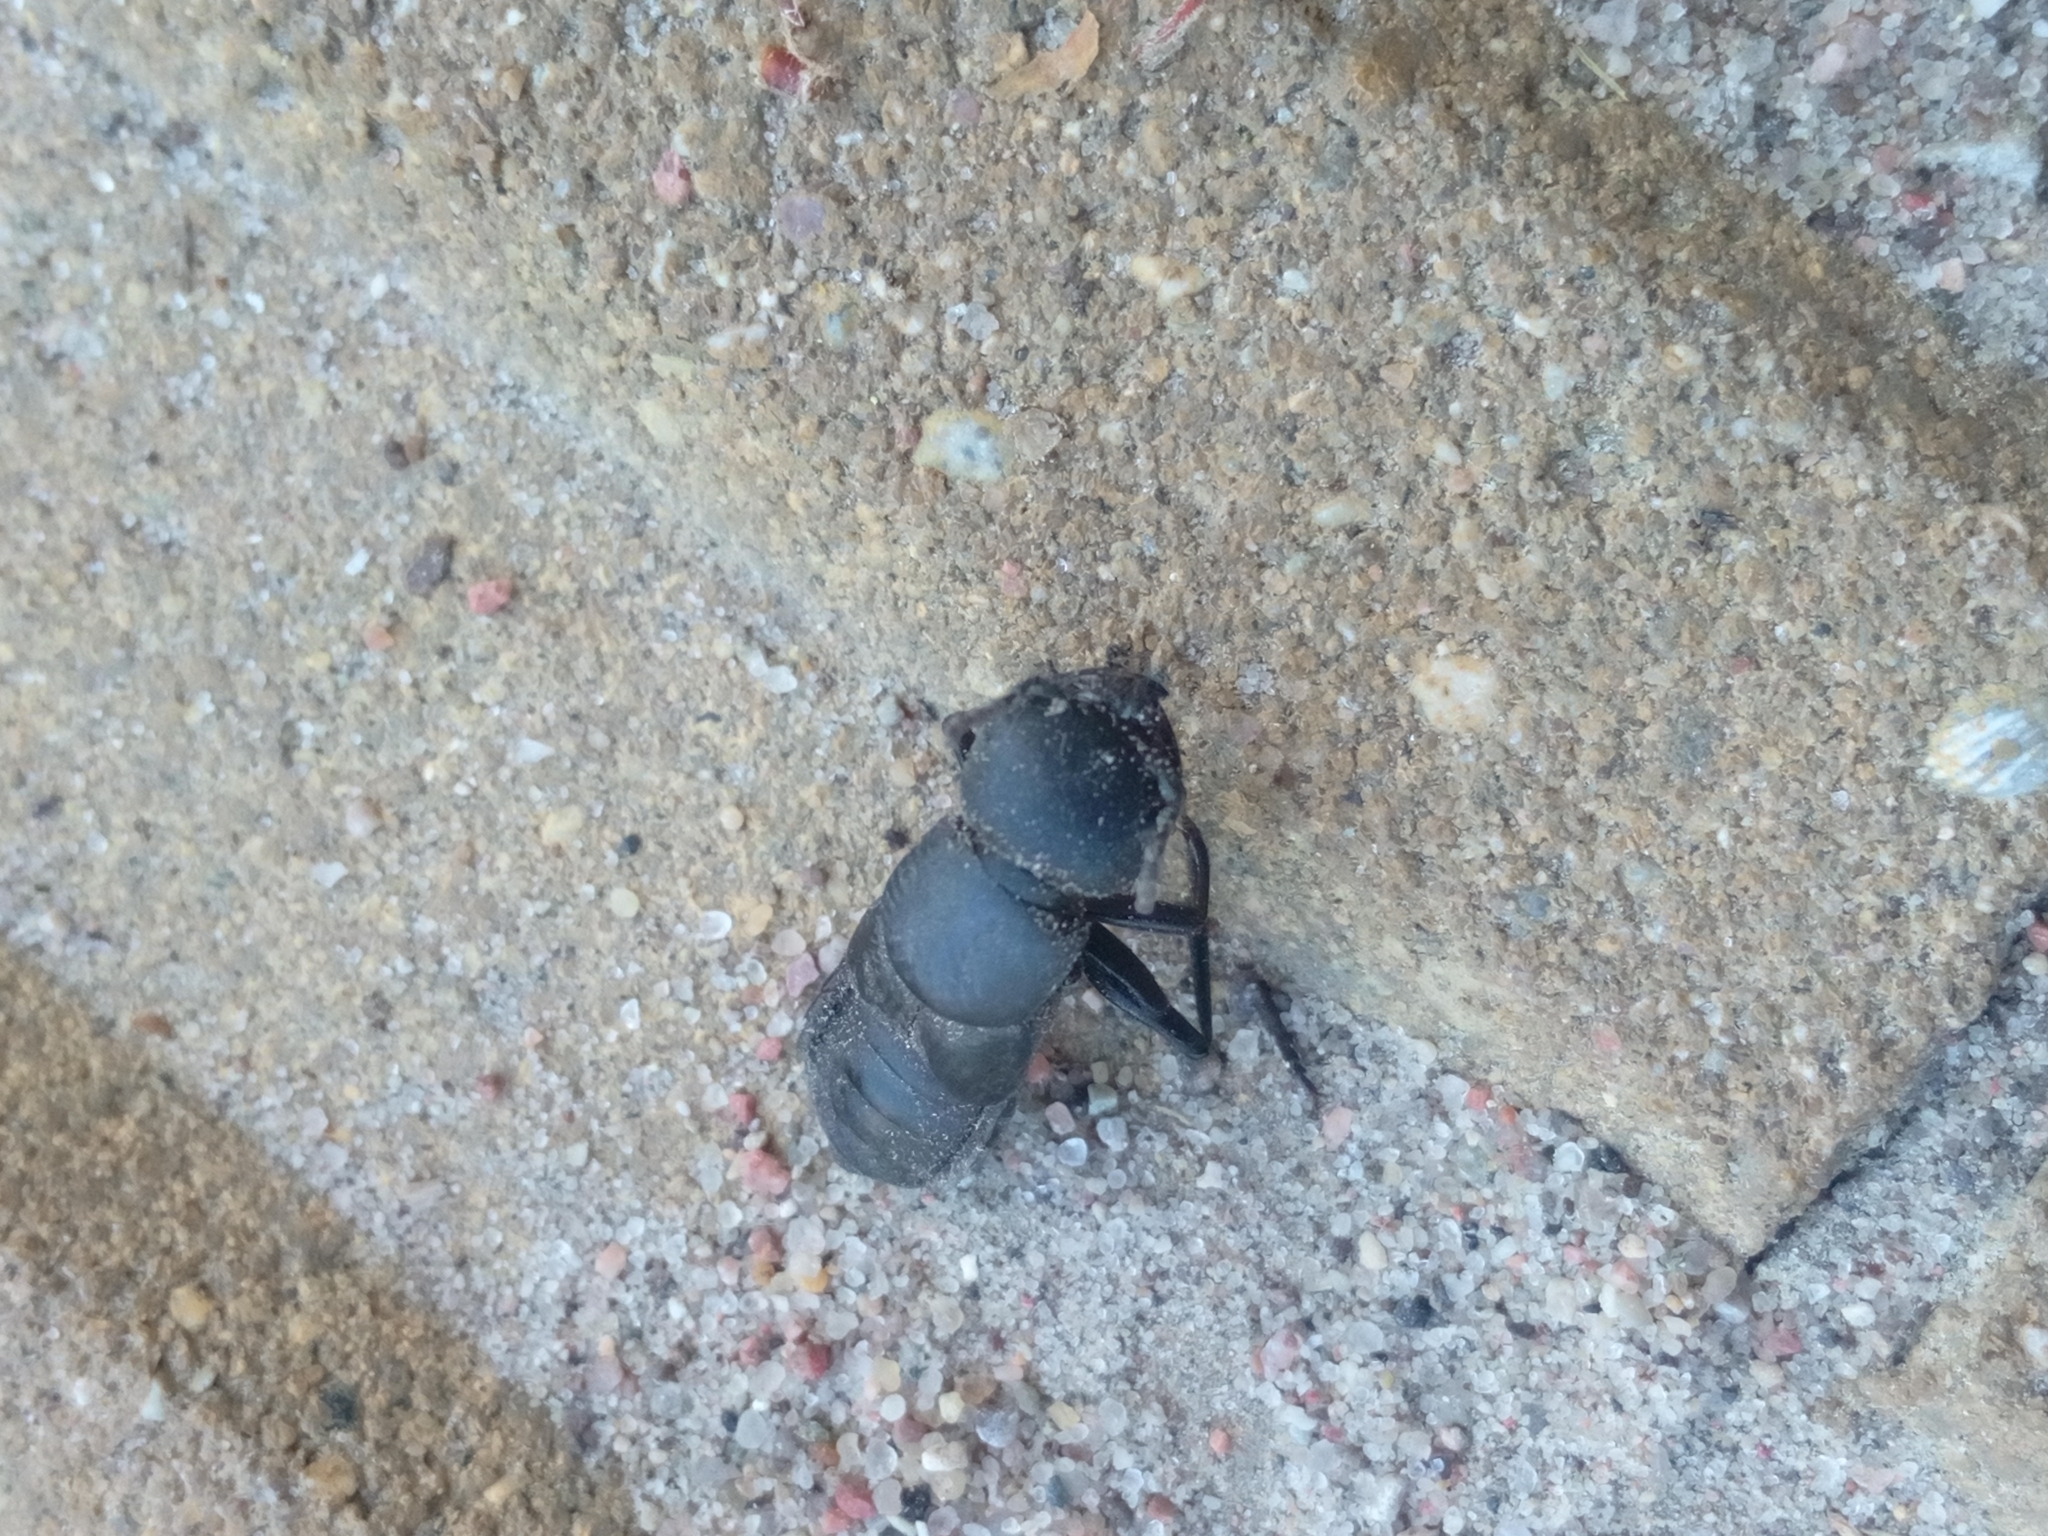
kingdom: Animalia
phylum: Arthropoda
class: Insecta
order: Coleoptera
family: Staphylinidae
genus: Ocypus
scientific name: Ocypus olens
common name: Devil's coach-horse
